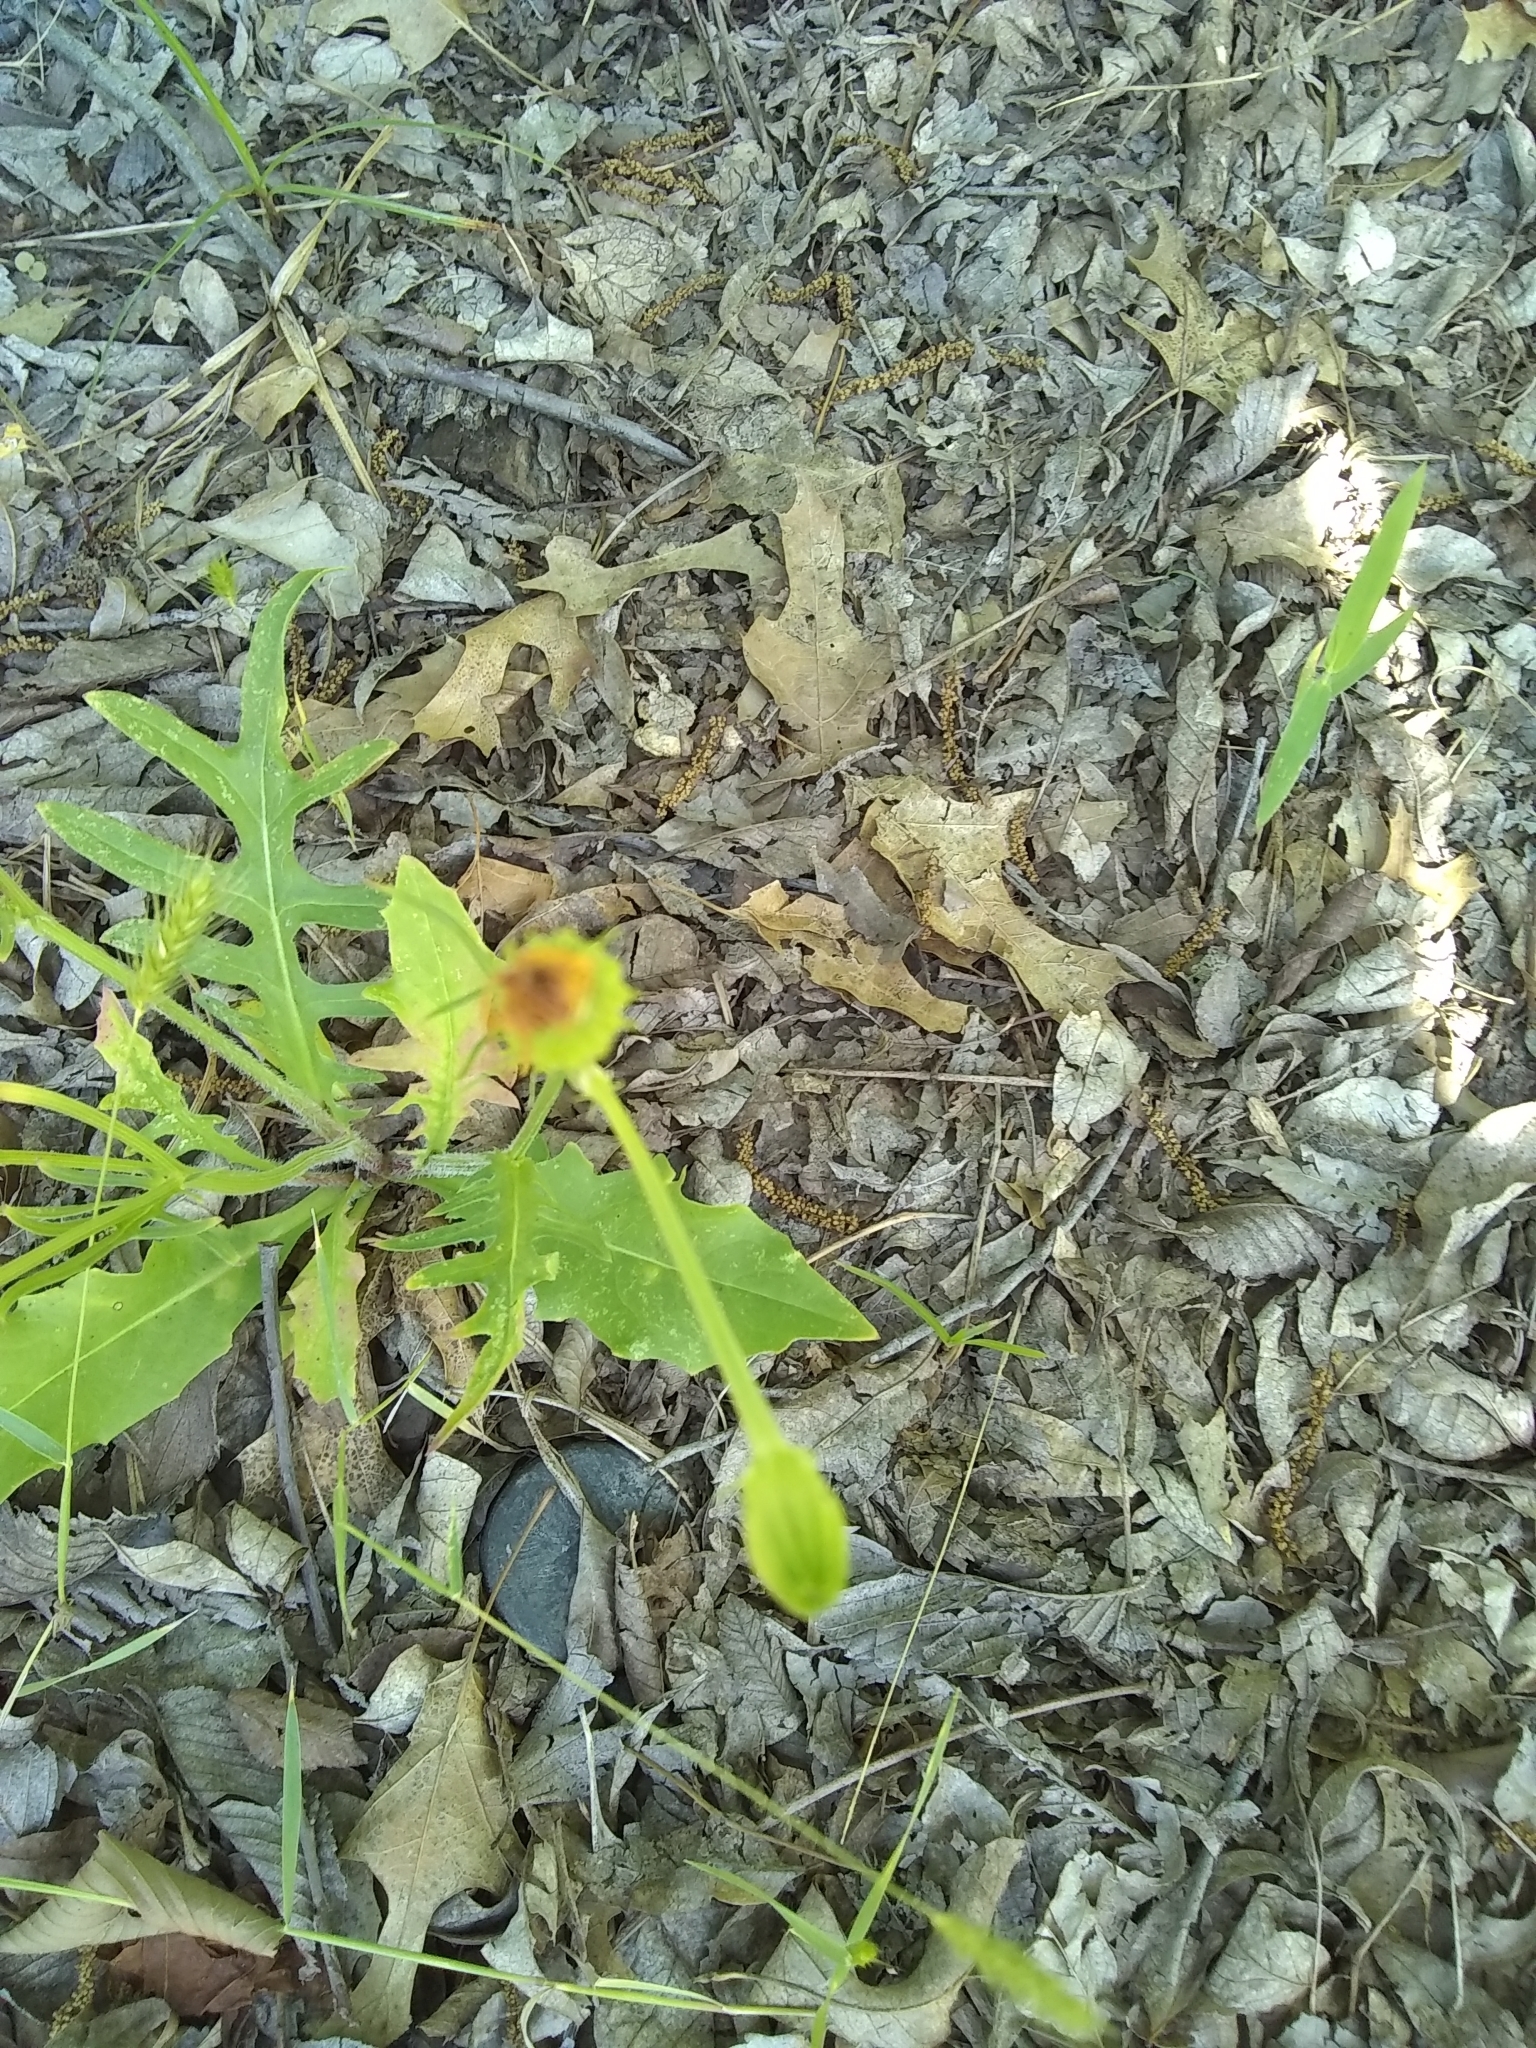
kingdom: Plantae
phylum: Tracheophyta
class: Magnoliopsida
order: Asterales
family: Asteraceae
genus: Pyrrhopappus
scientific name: Pyrrhopappus pauciflorus
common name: Texas false dandelion
